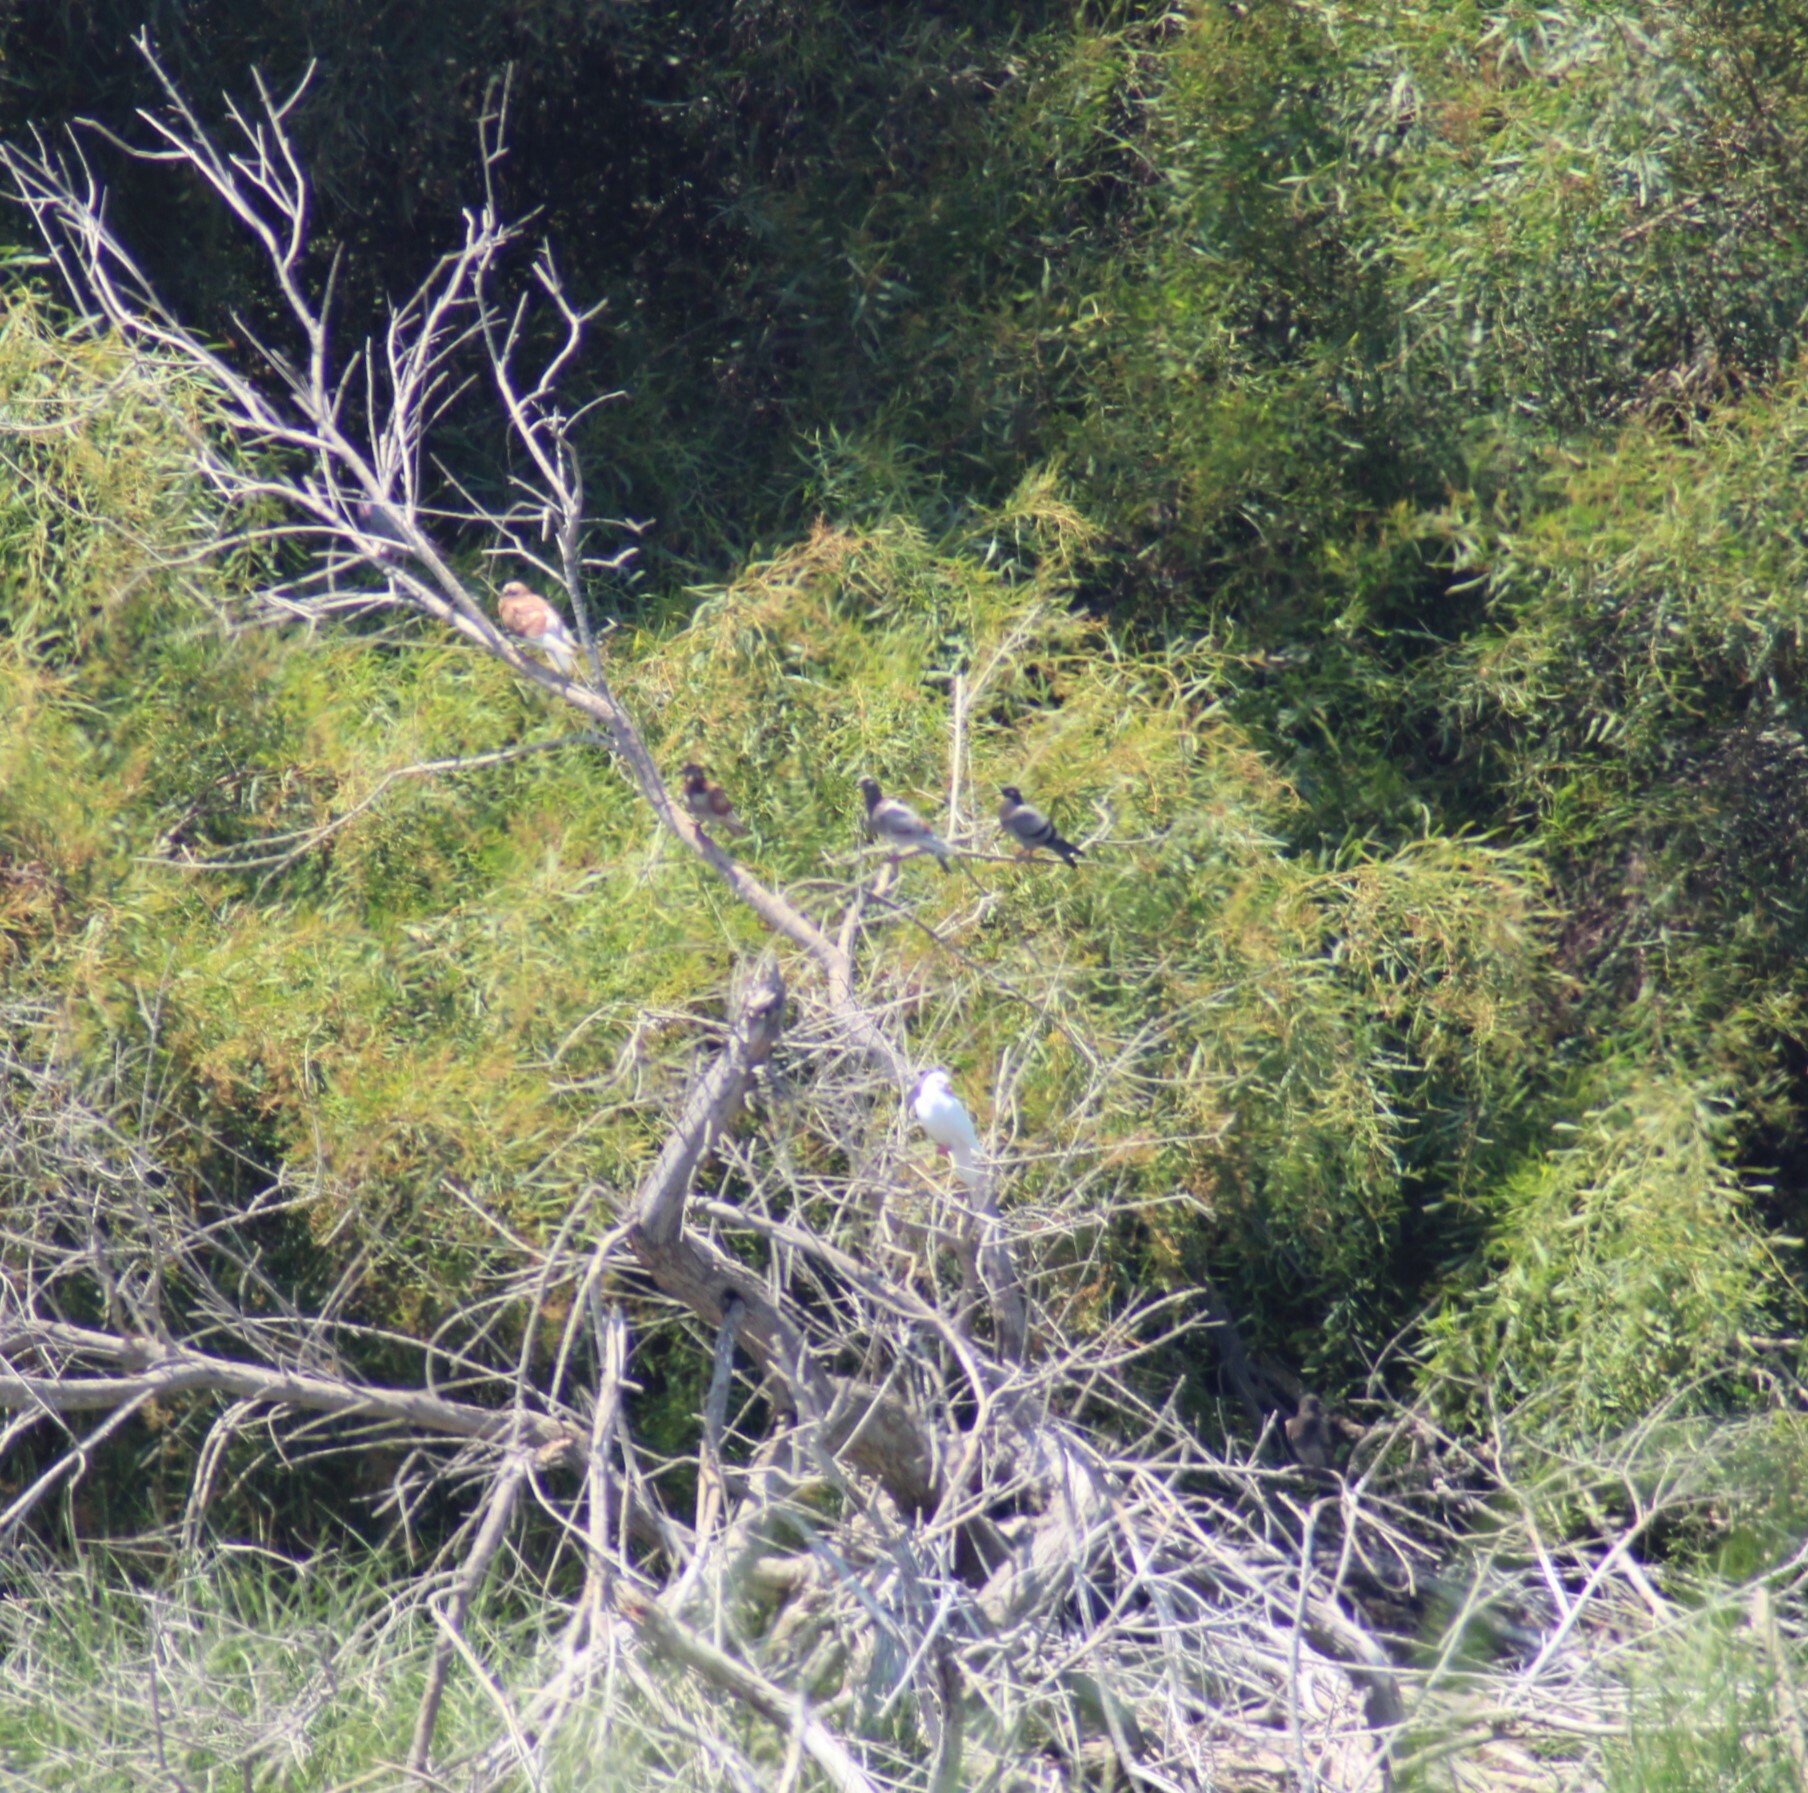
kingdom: Animalia
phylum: Chordata
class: Aves
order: Columbiformes
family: Columbidae
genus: Columba
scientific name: Columba livia
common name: Rock pigeon
